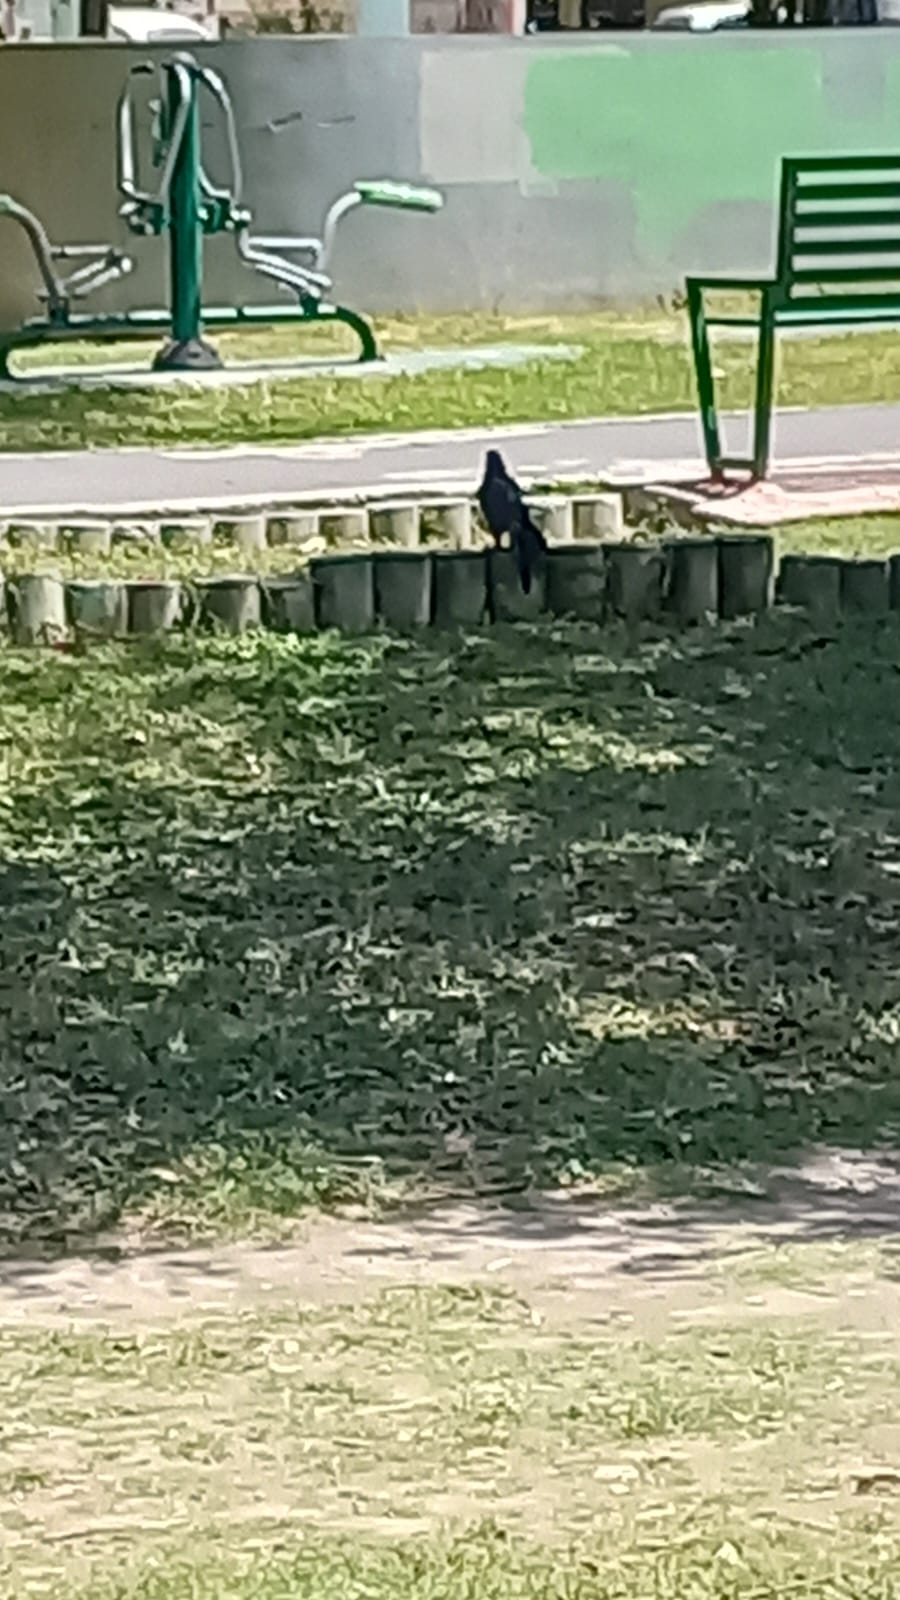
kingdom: Animalia
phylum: Chordata
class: Aves
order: Passeriformes
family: Icteridae
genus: Quiscalus
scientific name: Quiscalus mexicanus
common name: Great-tailed grackle
